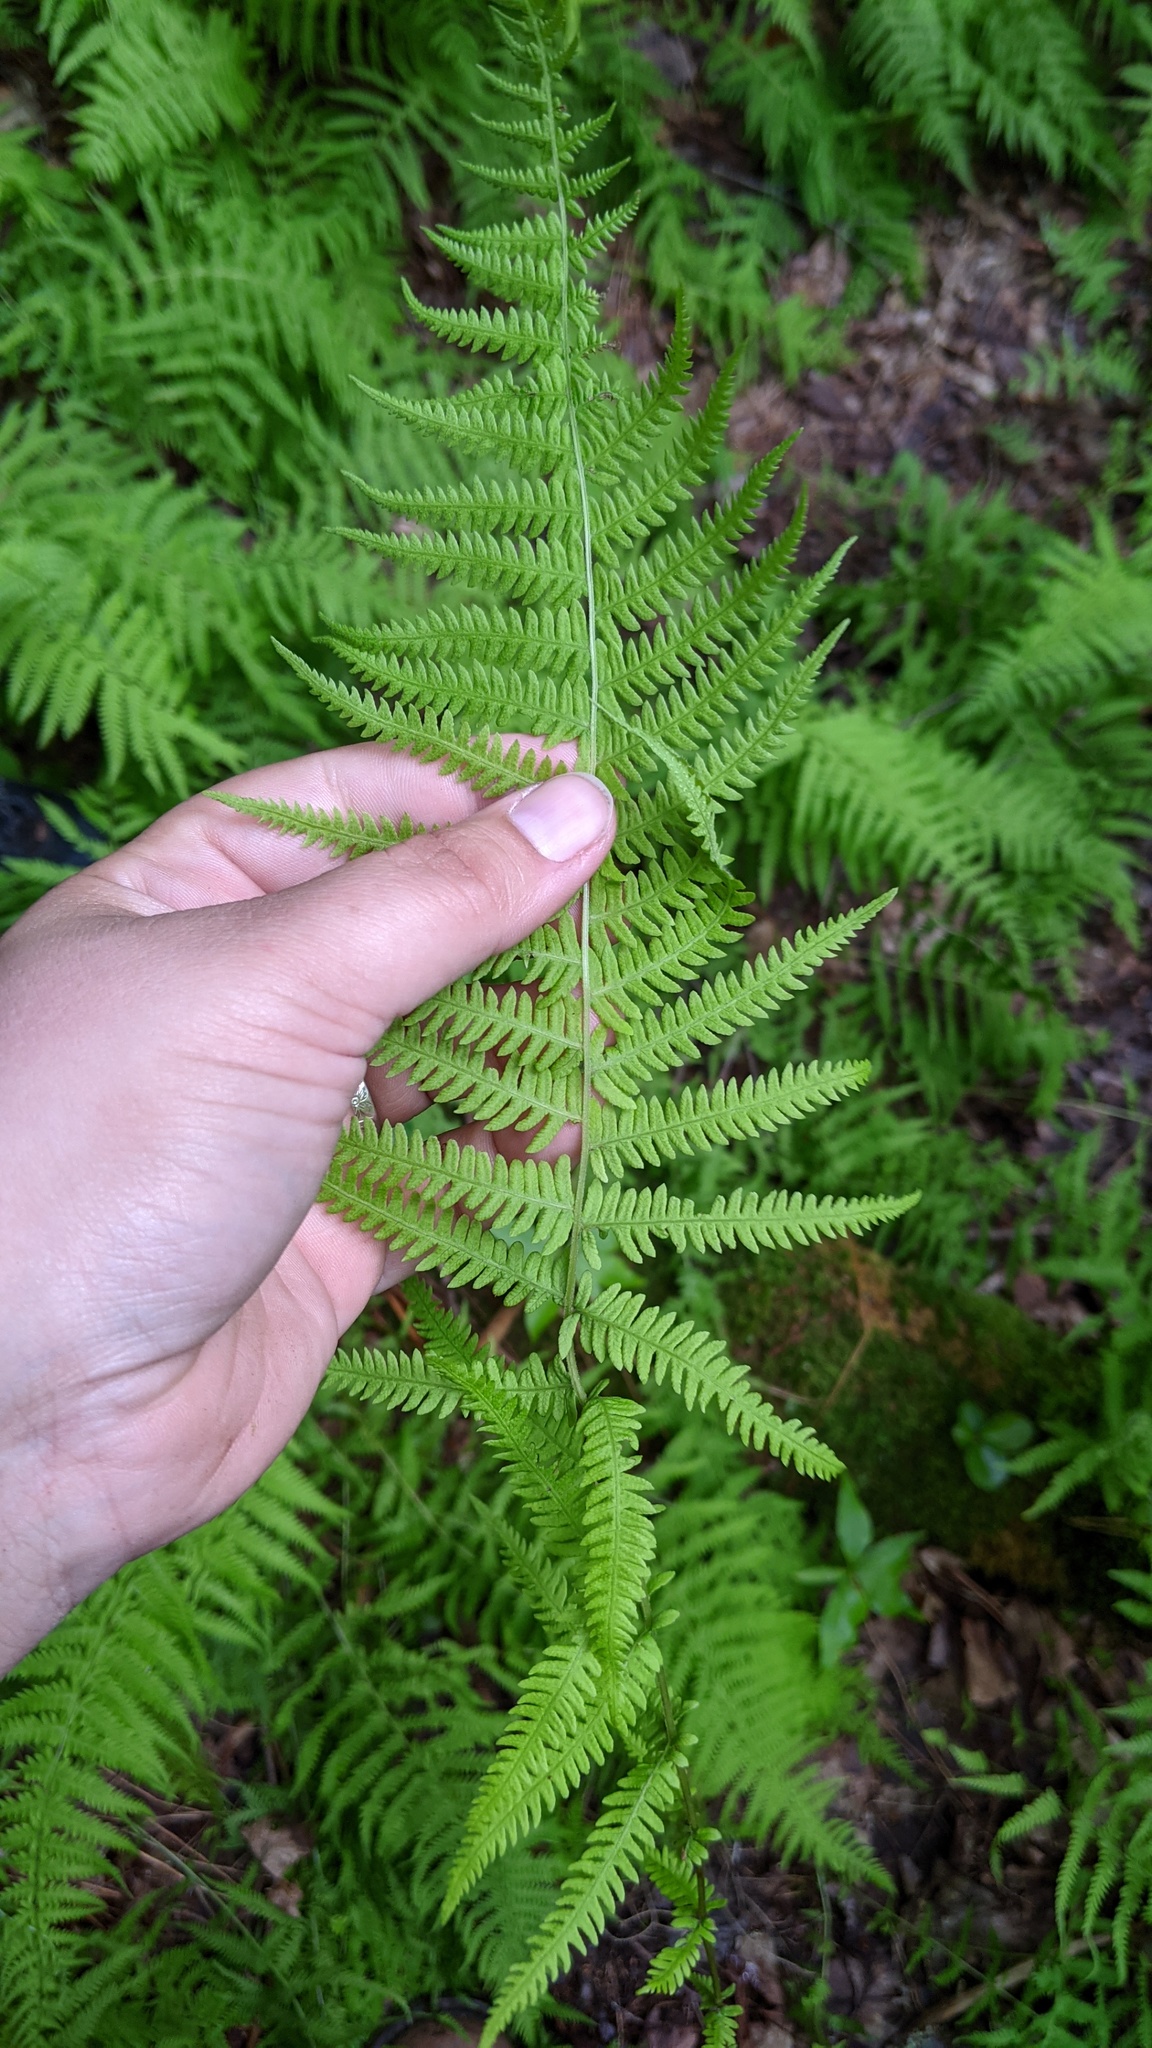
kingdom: Plantae
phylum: Tracheophyta
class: Polypodiopsida
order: Polypodiales
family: Thelypteridaceae
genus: Amauropelta
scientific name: Amauropelta noveboracensis
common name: New york fern
